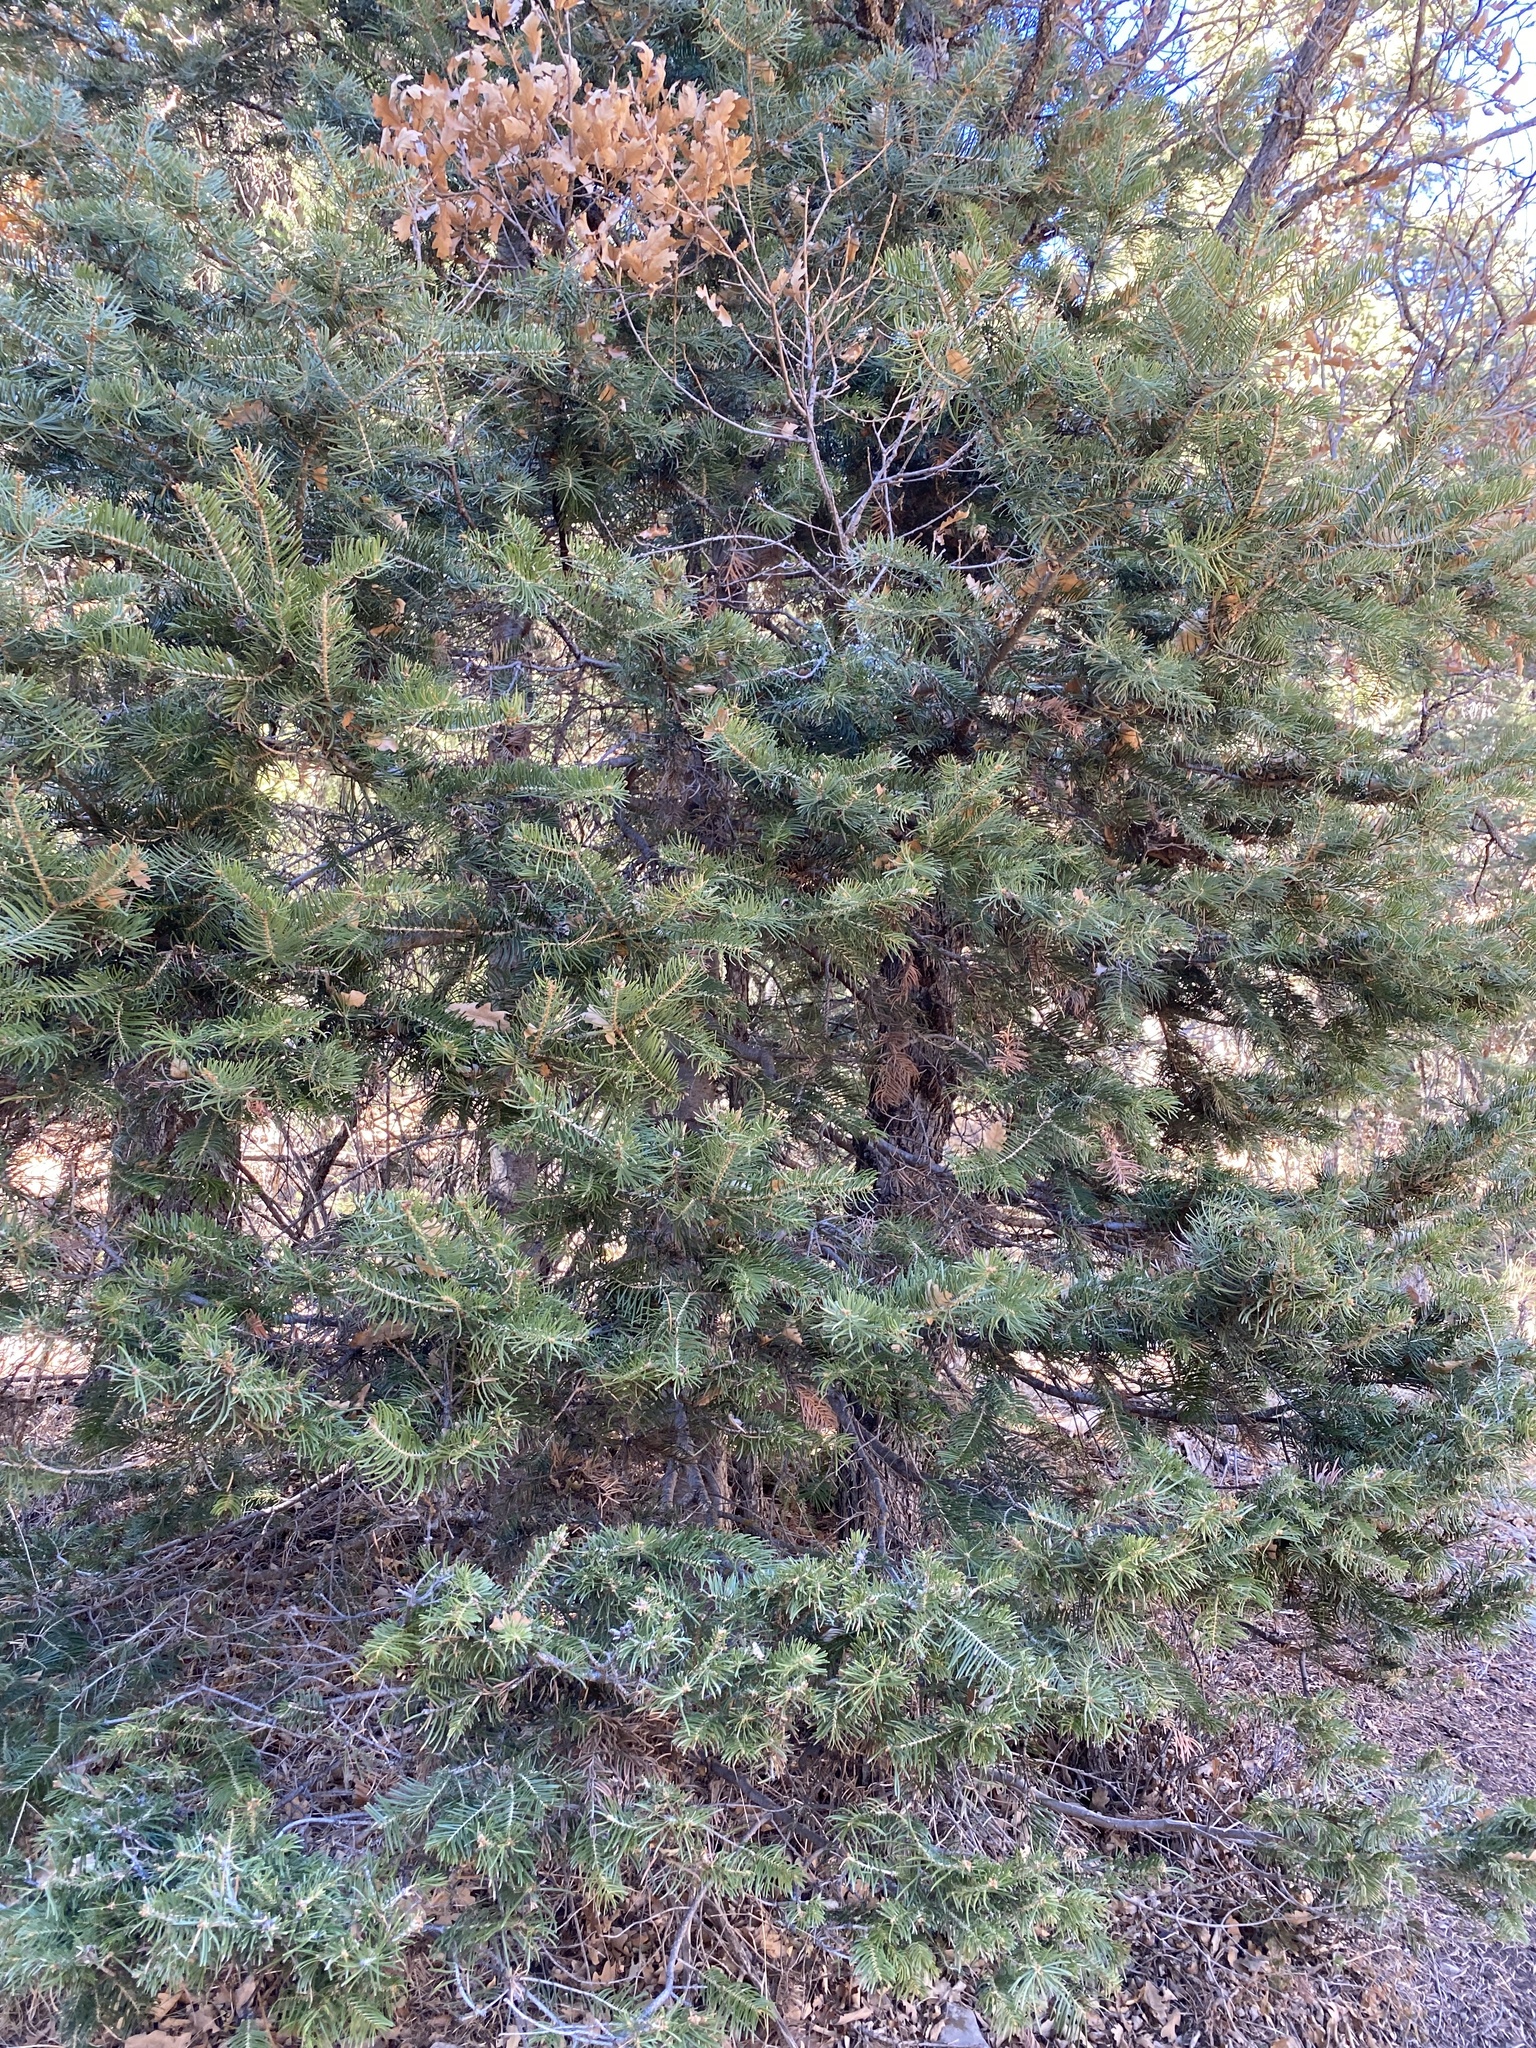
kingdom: Plantae
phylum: Tracheophyta
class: Pinopsida
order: Pinales
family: Pinaceae
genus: Abies
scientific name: Abies concolor
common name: Colorado fir
